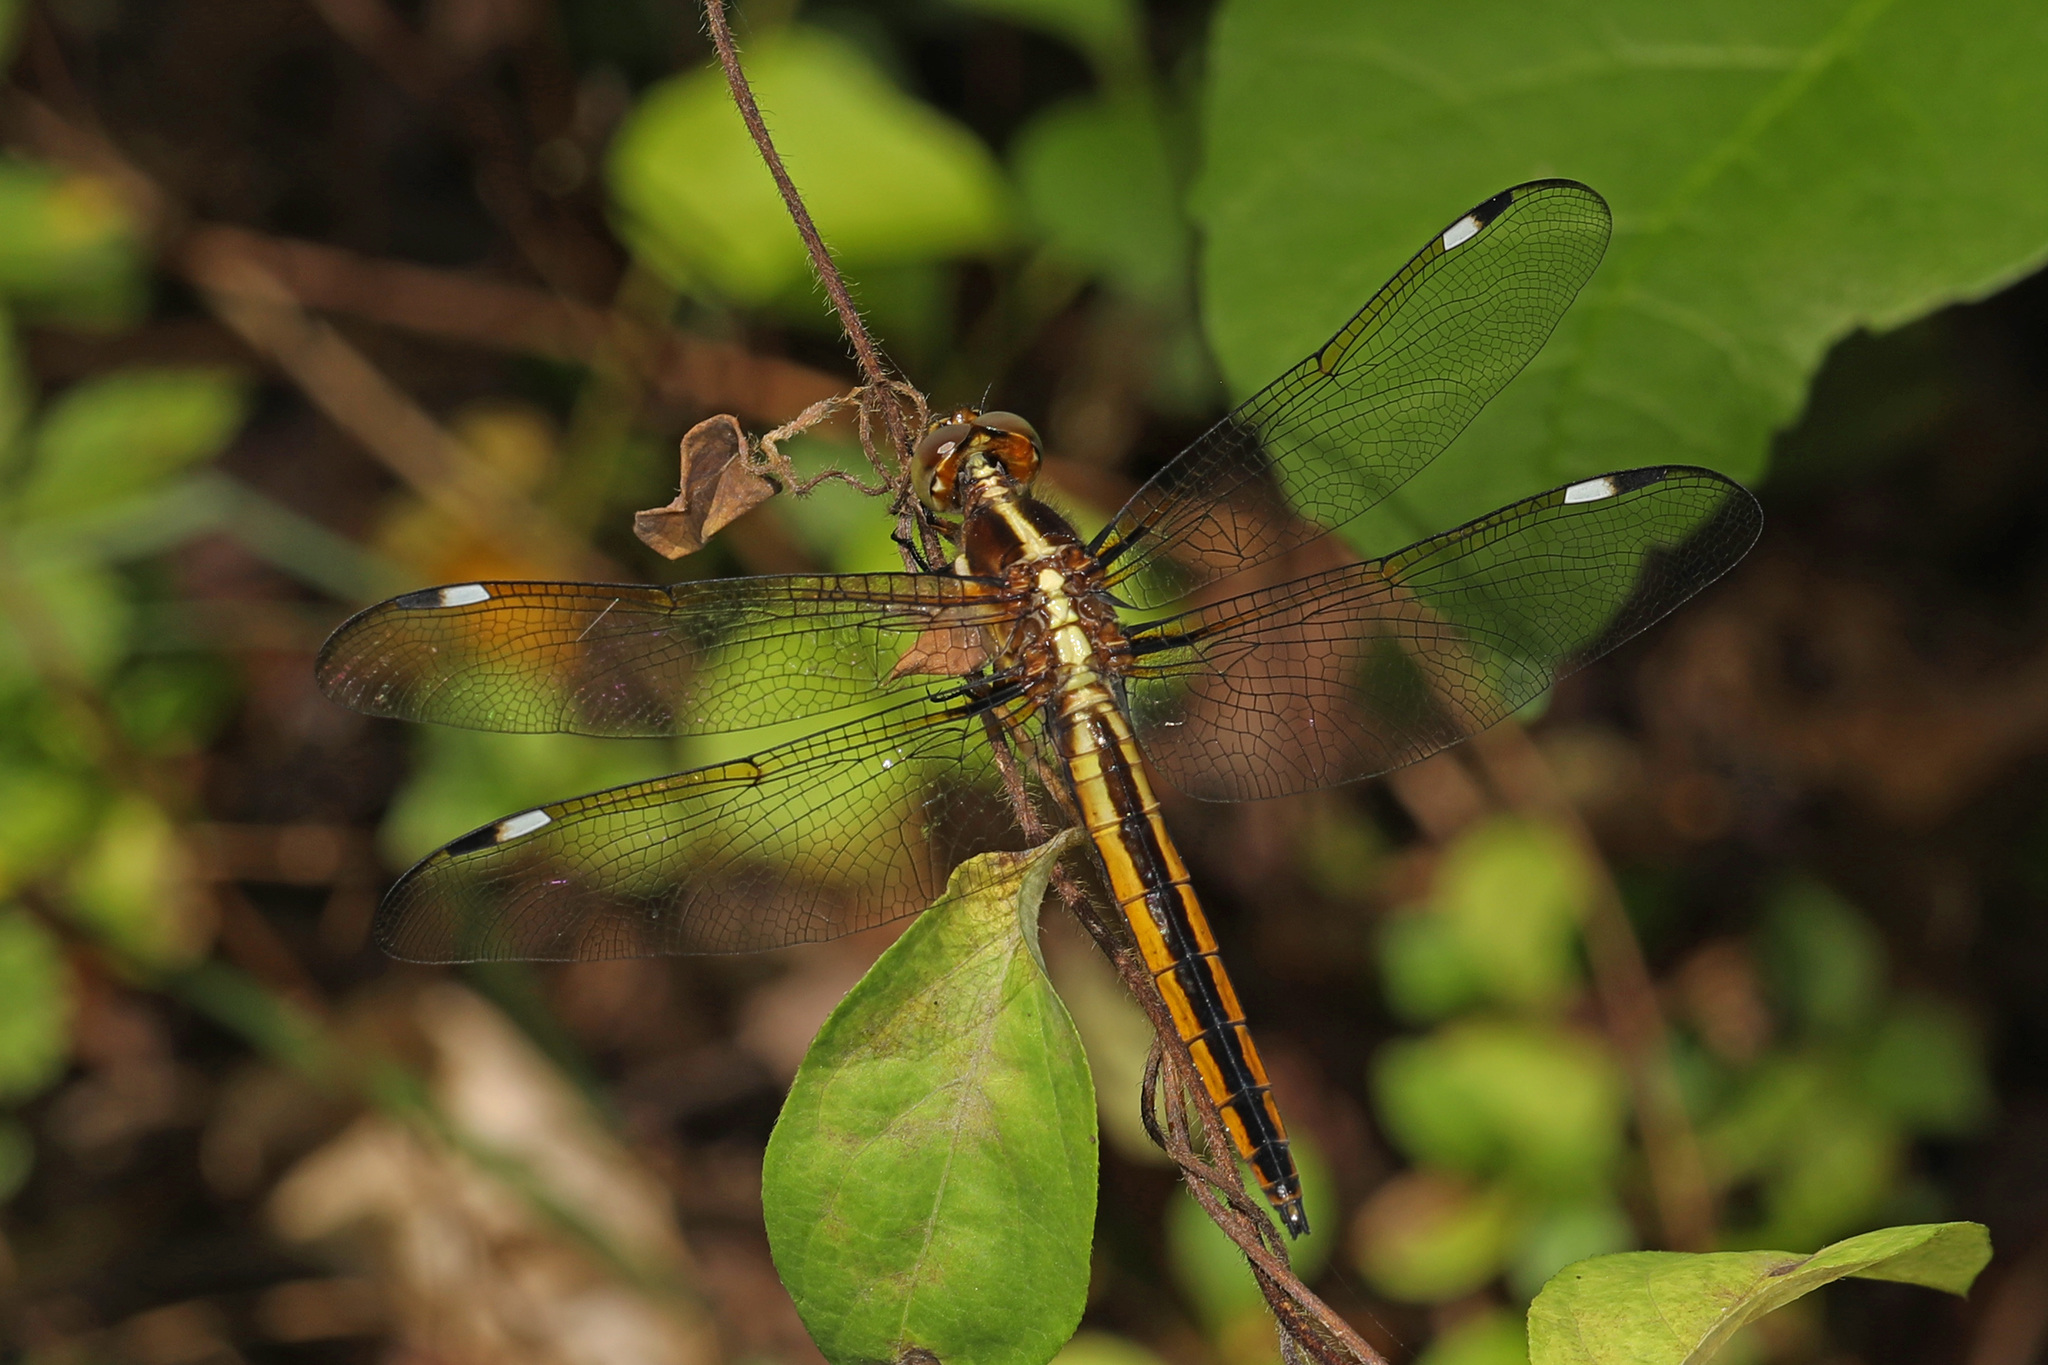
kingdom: Animalia
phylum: Arthropoda
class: Insecta
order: Odonata
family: Libellulidae
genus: Libellula
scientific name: Libellula cyanea
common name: Spangled skimmer
